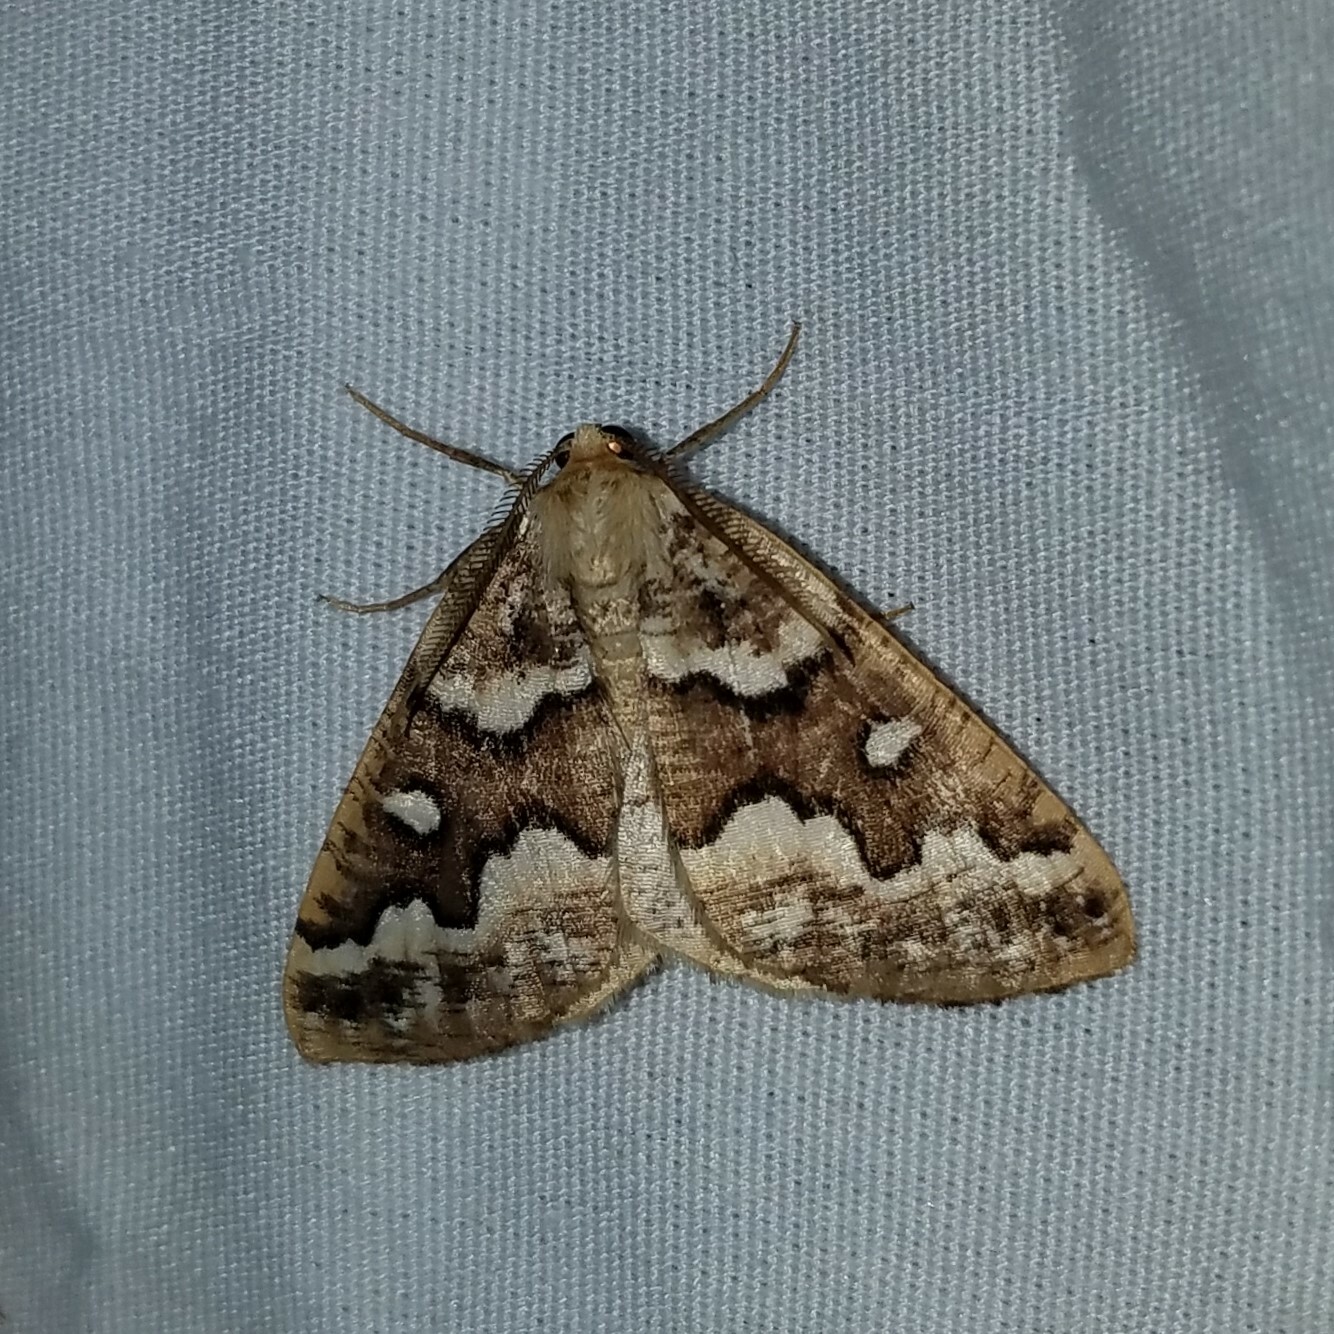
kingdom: Animalia
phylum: Arthropoda
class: Insecta
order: Lepidoptera
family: Geometridae
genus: Caripeta
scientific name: Caripeta divisata
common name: Gray spruce looper
